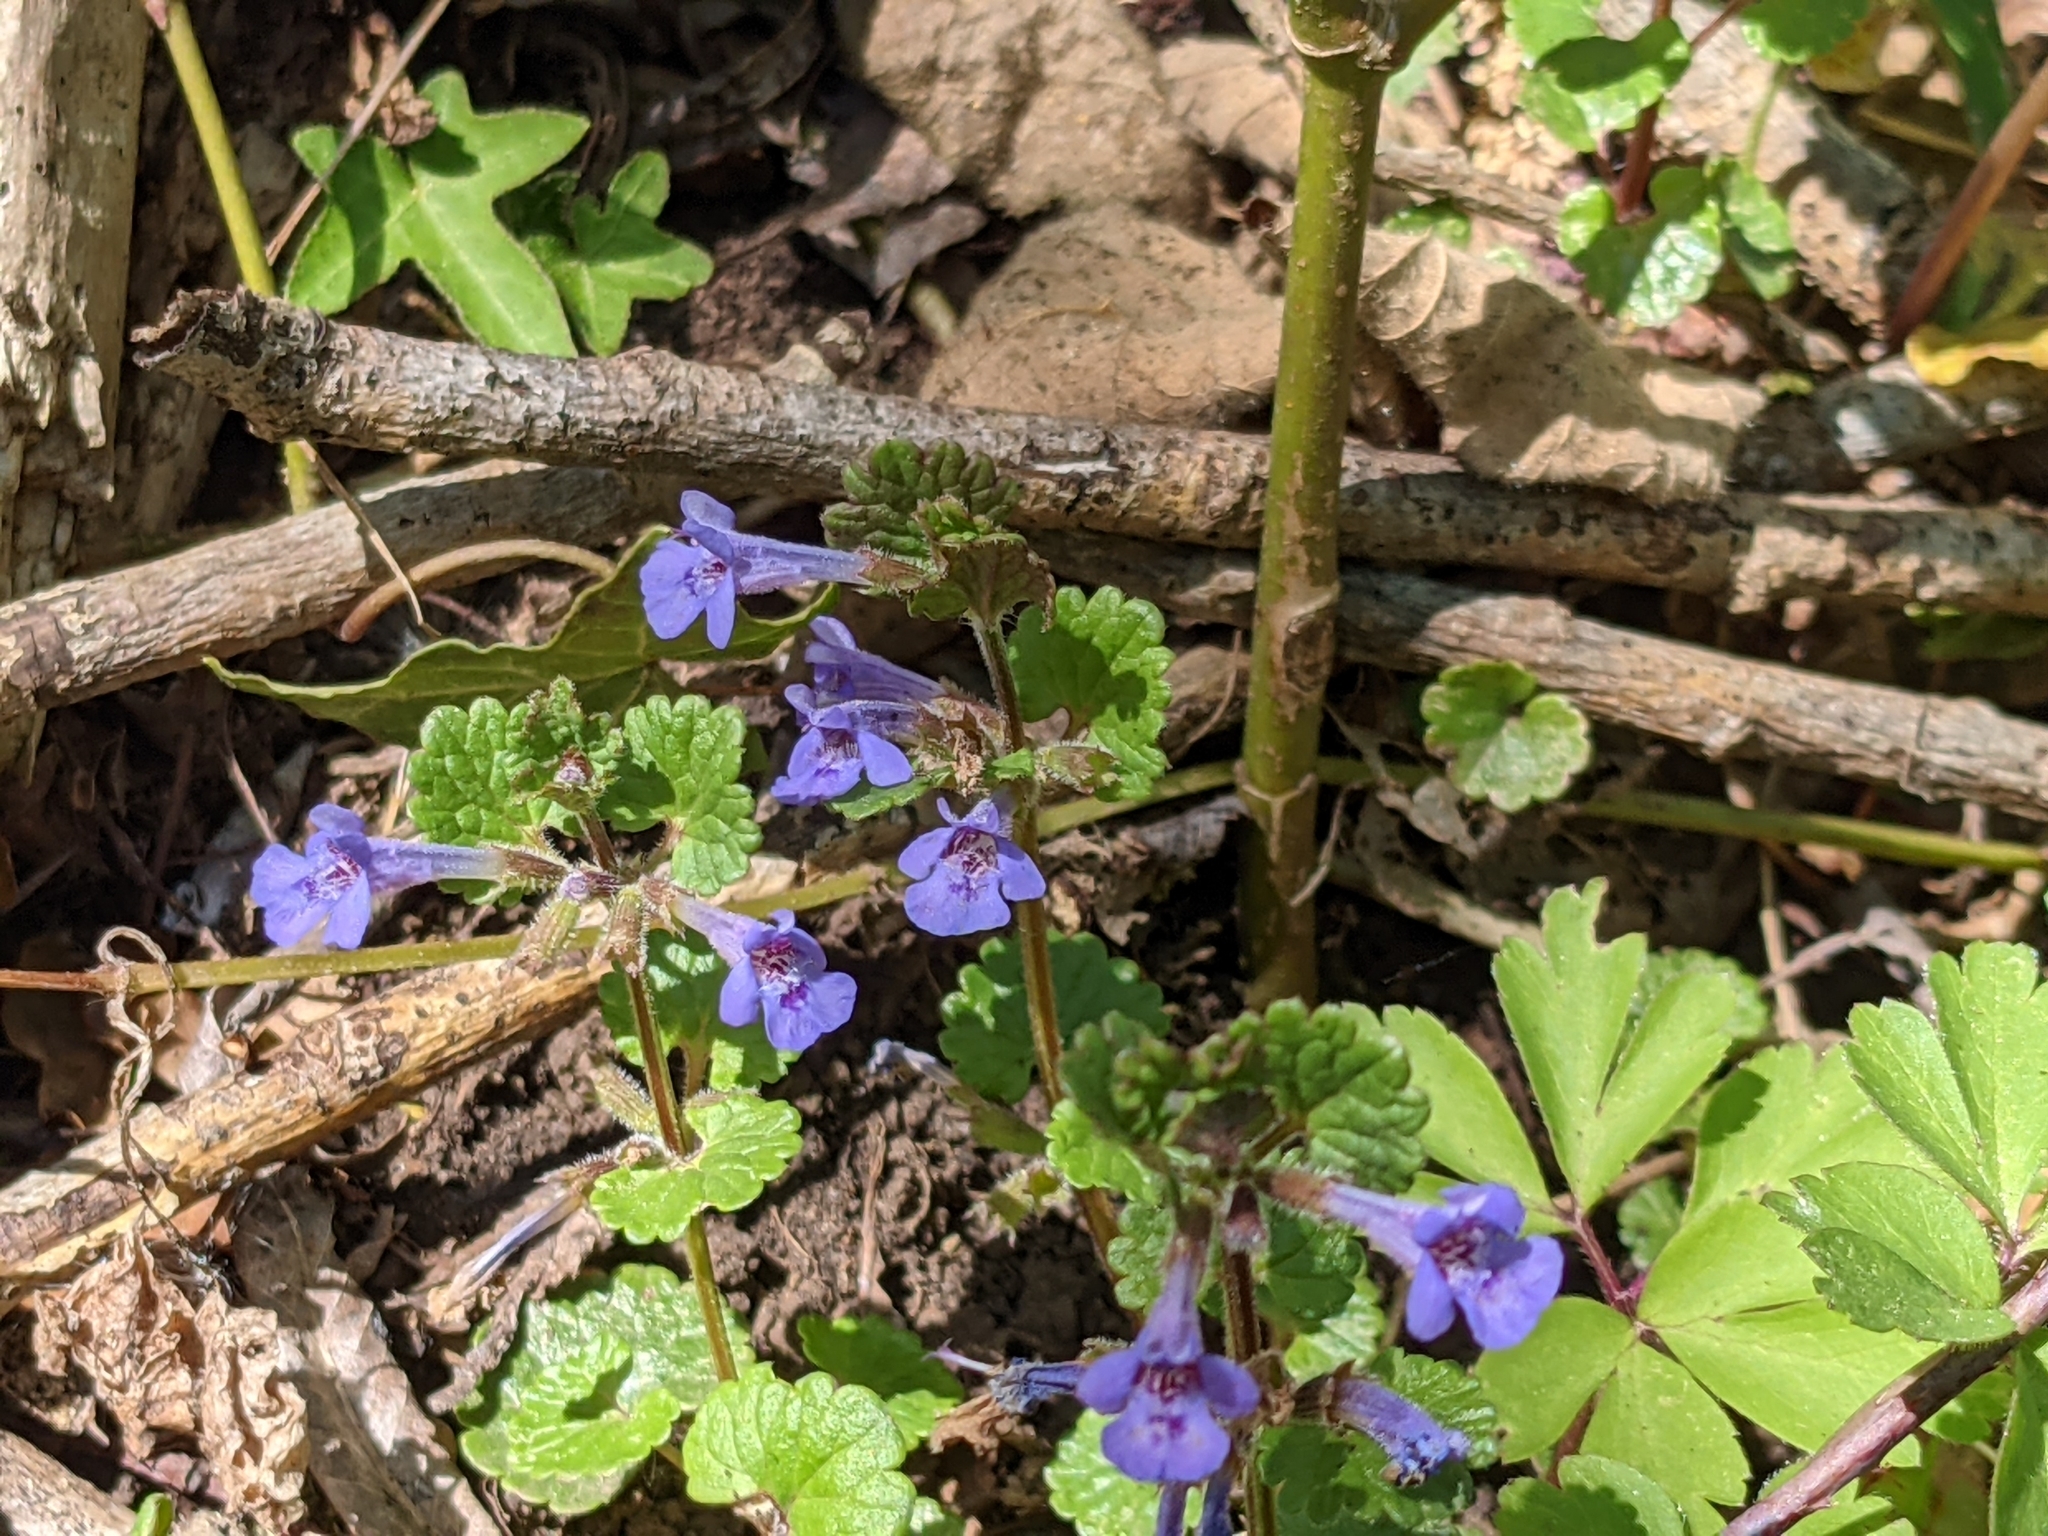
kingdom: Plantae
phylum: Tracheophyta
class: Magnoliopsida
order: Lamiales
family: Lamiaceae
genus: Glechoma
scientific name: Glechoma hederacea
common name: Ground ivy
